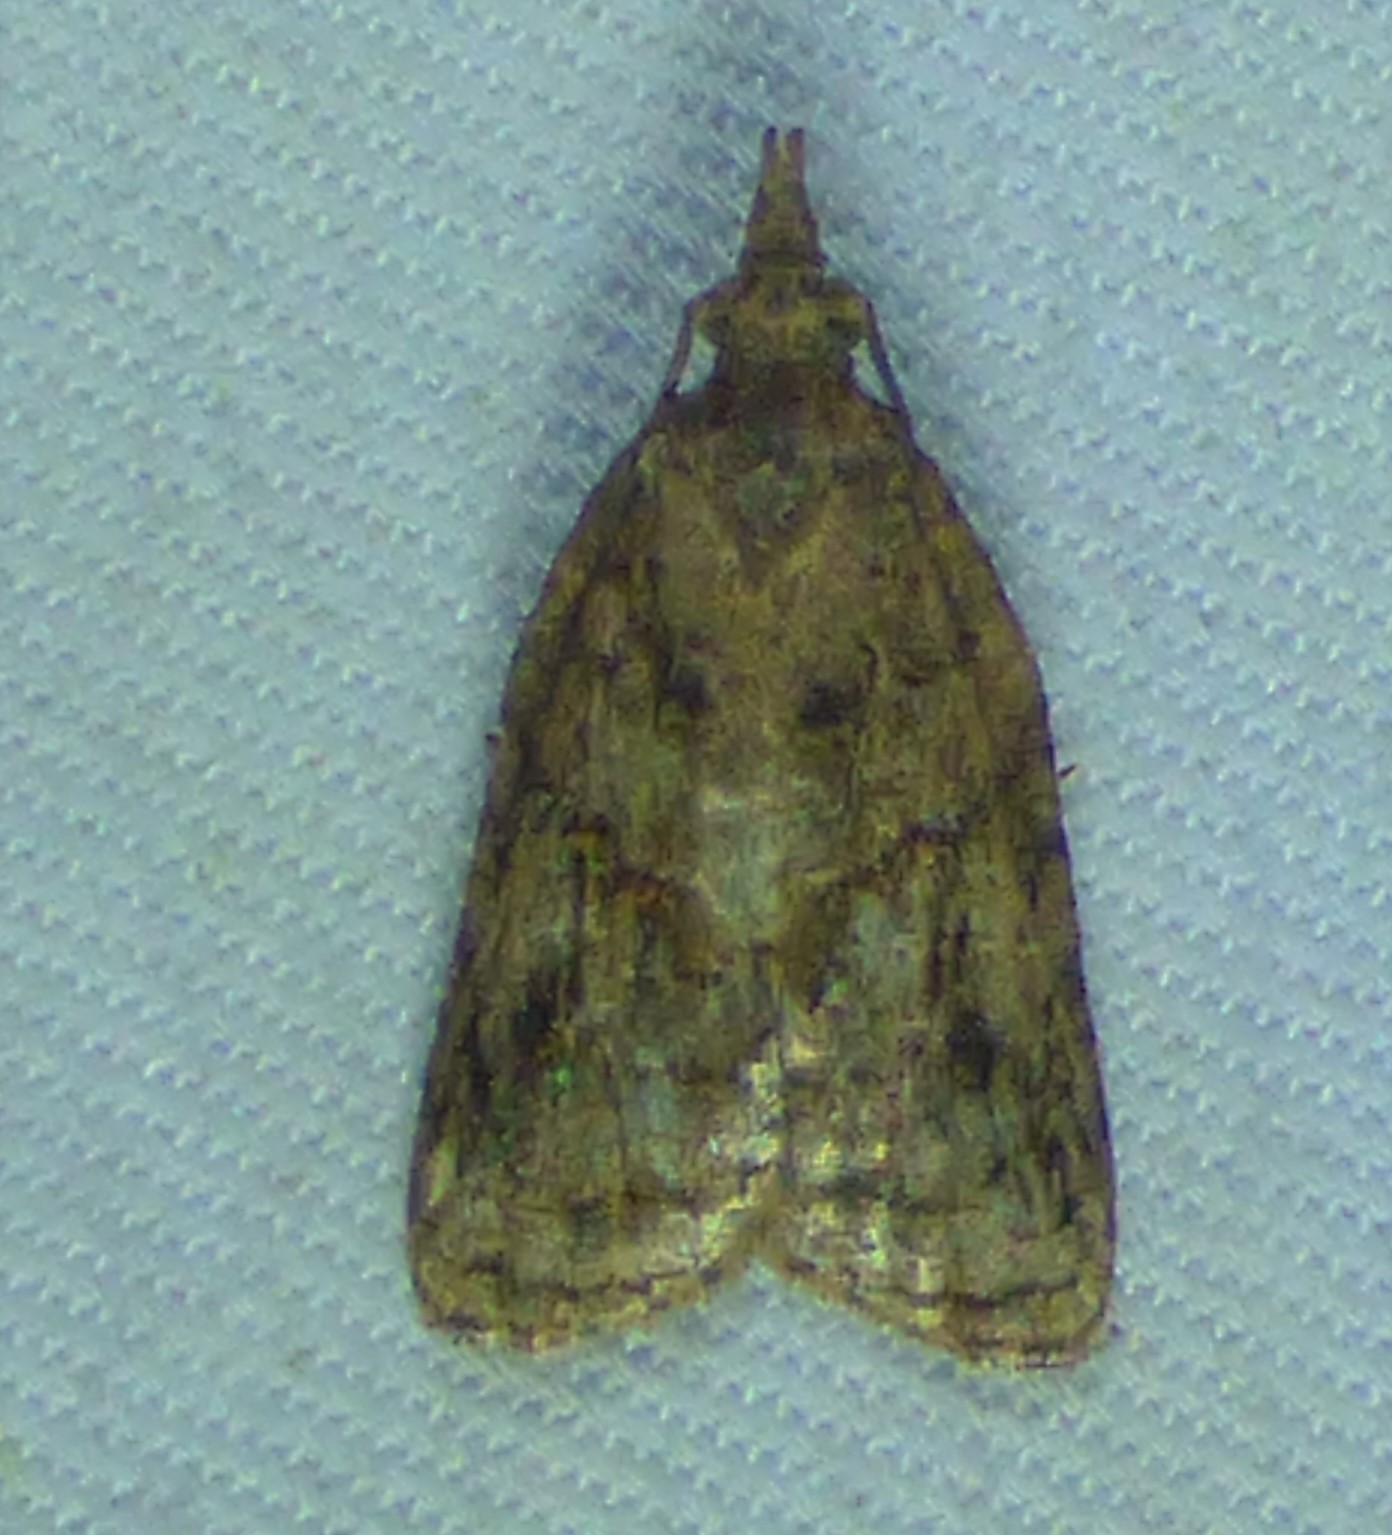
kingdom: Animalia
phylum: Arthropoda
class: Insecta
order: Lepidoptera
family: Tortricidae
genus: Platynota
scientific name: Platynota idaeusalis
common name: Tufted apple bud moth
